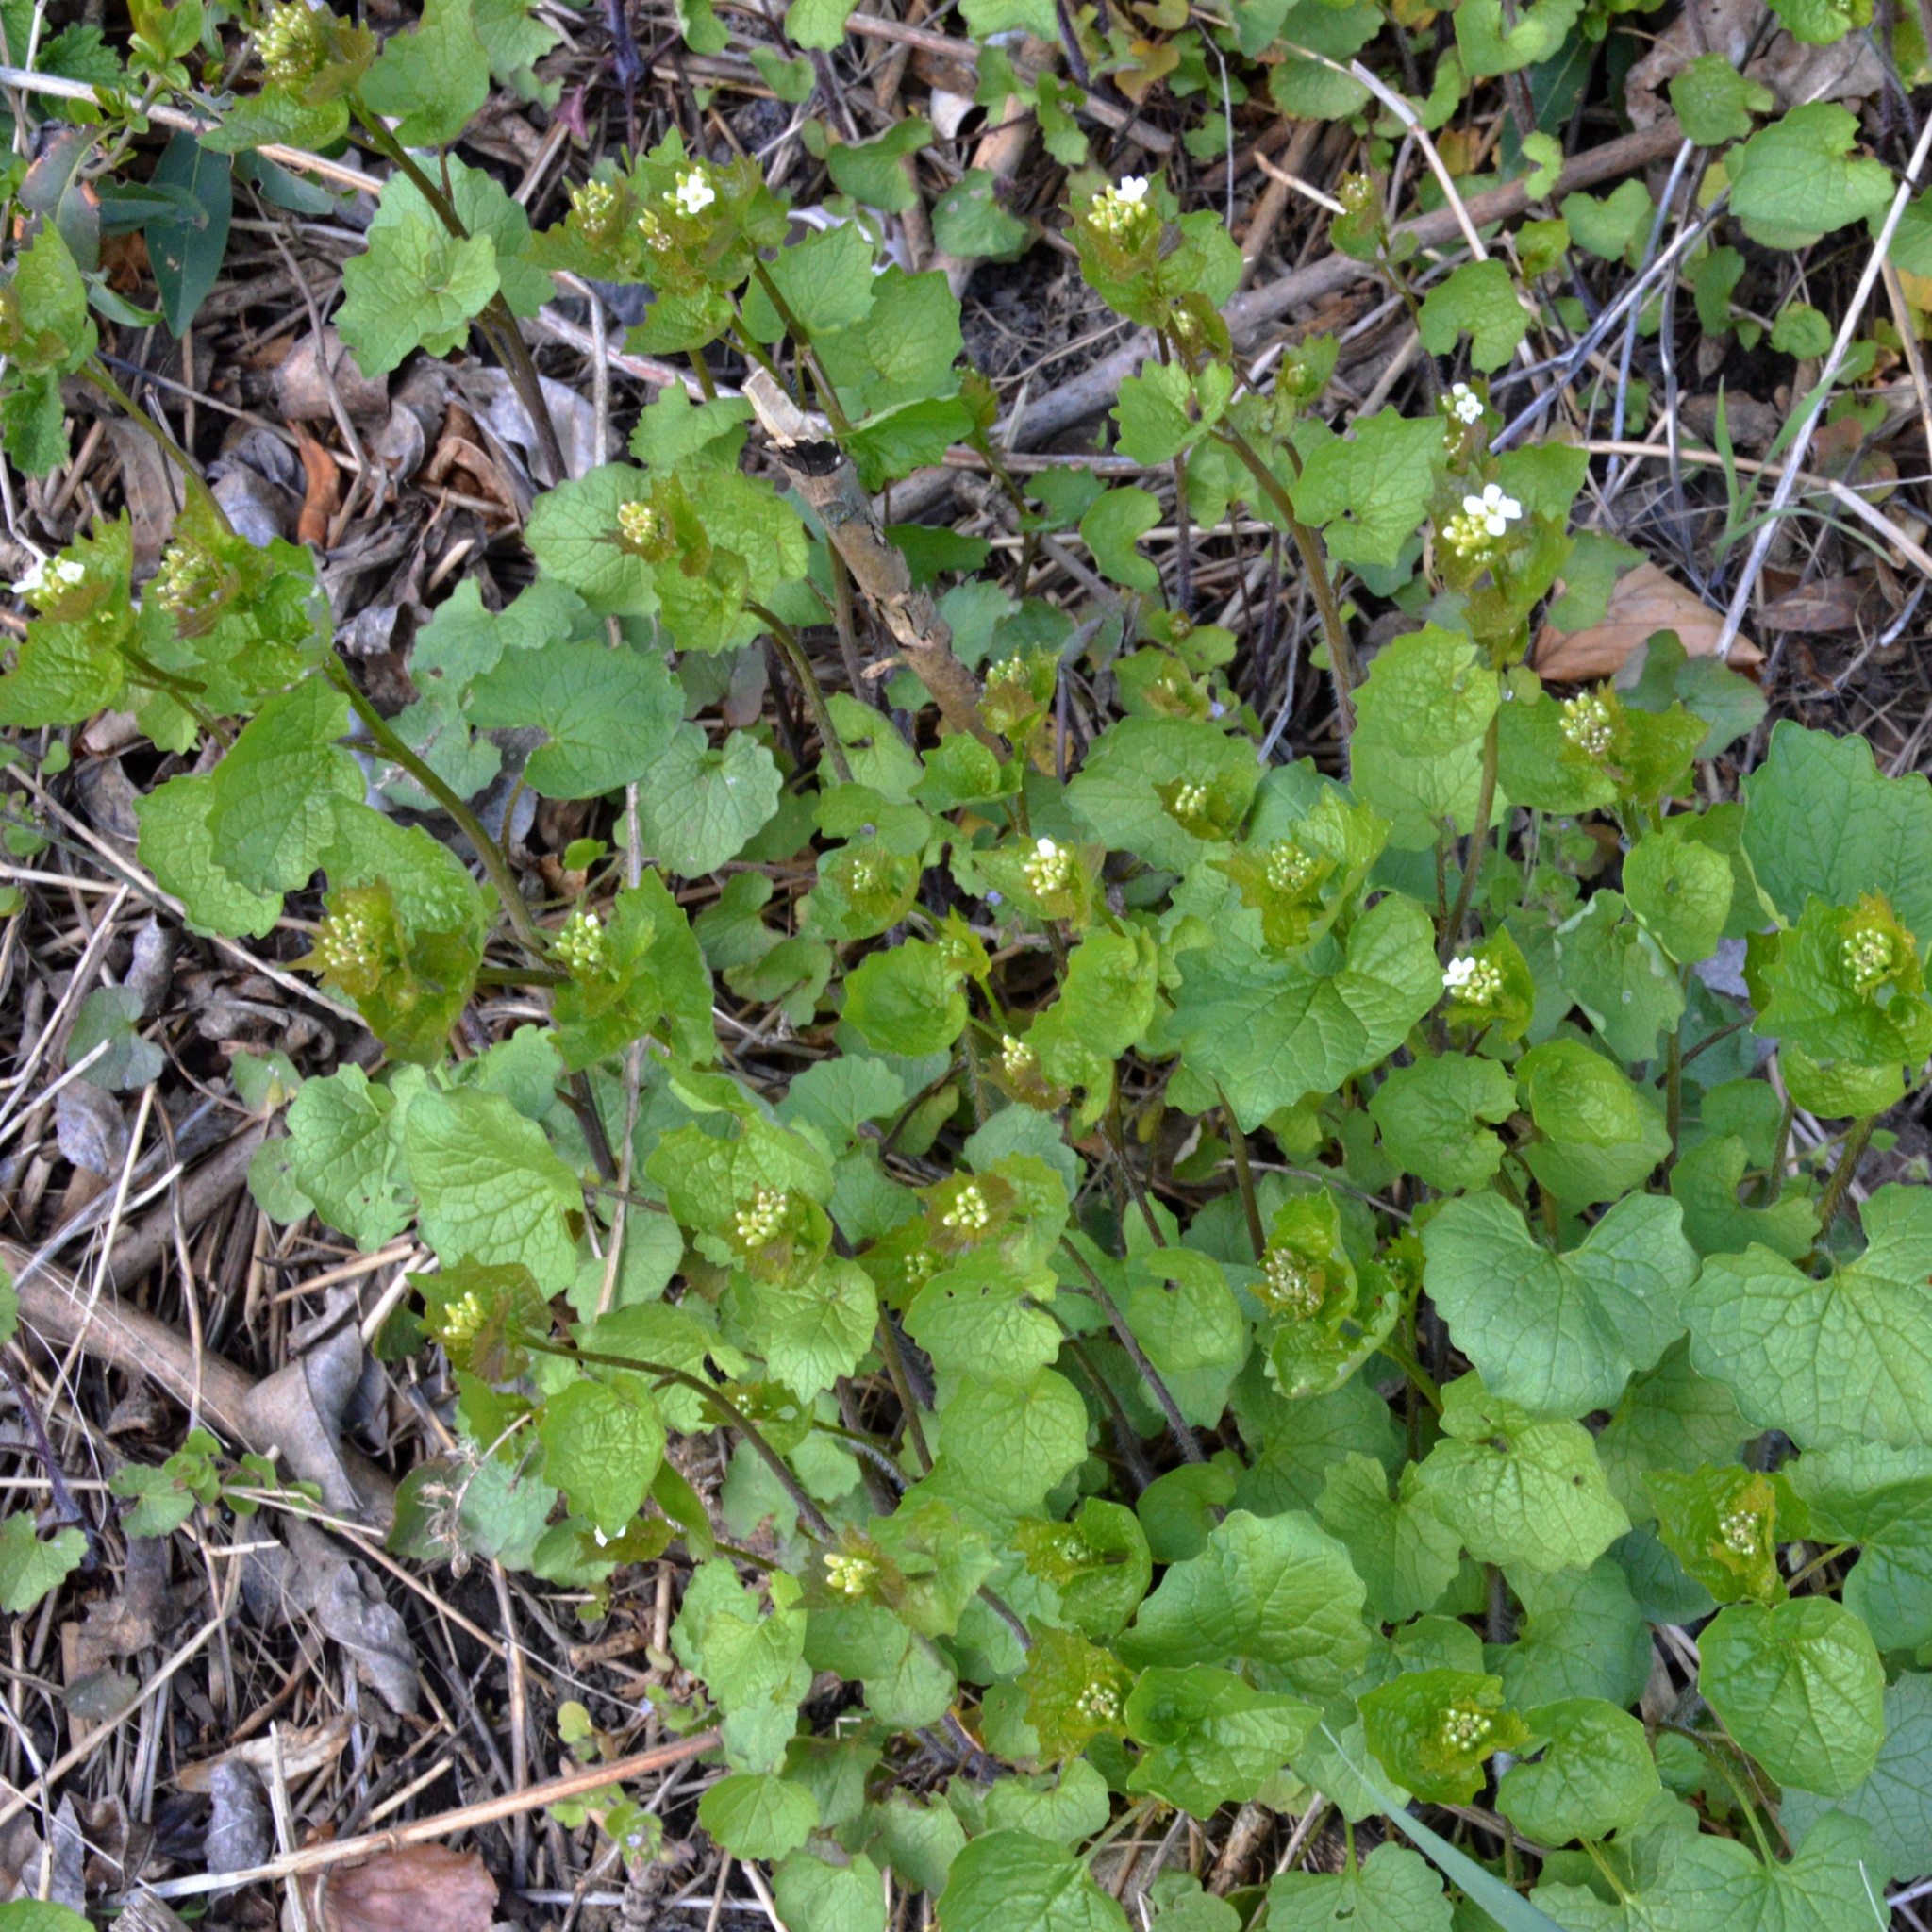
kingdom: Plantae
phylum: Tracheophyta
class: Magnoliopsida
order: Brassicales
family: Brassicaceae
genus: Alliaria
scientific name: Alliaria petiolata
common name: Garlic mustard
